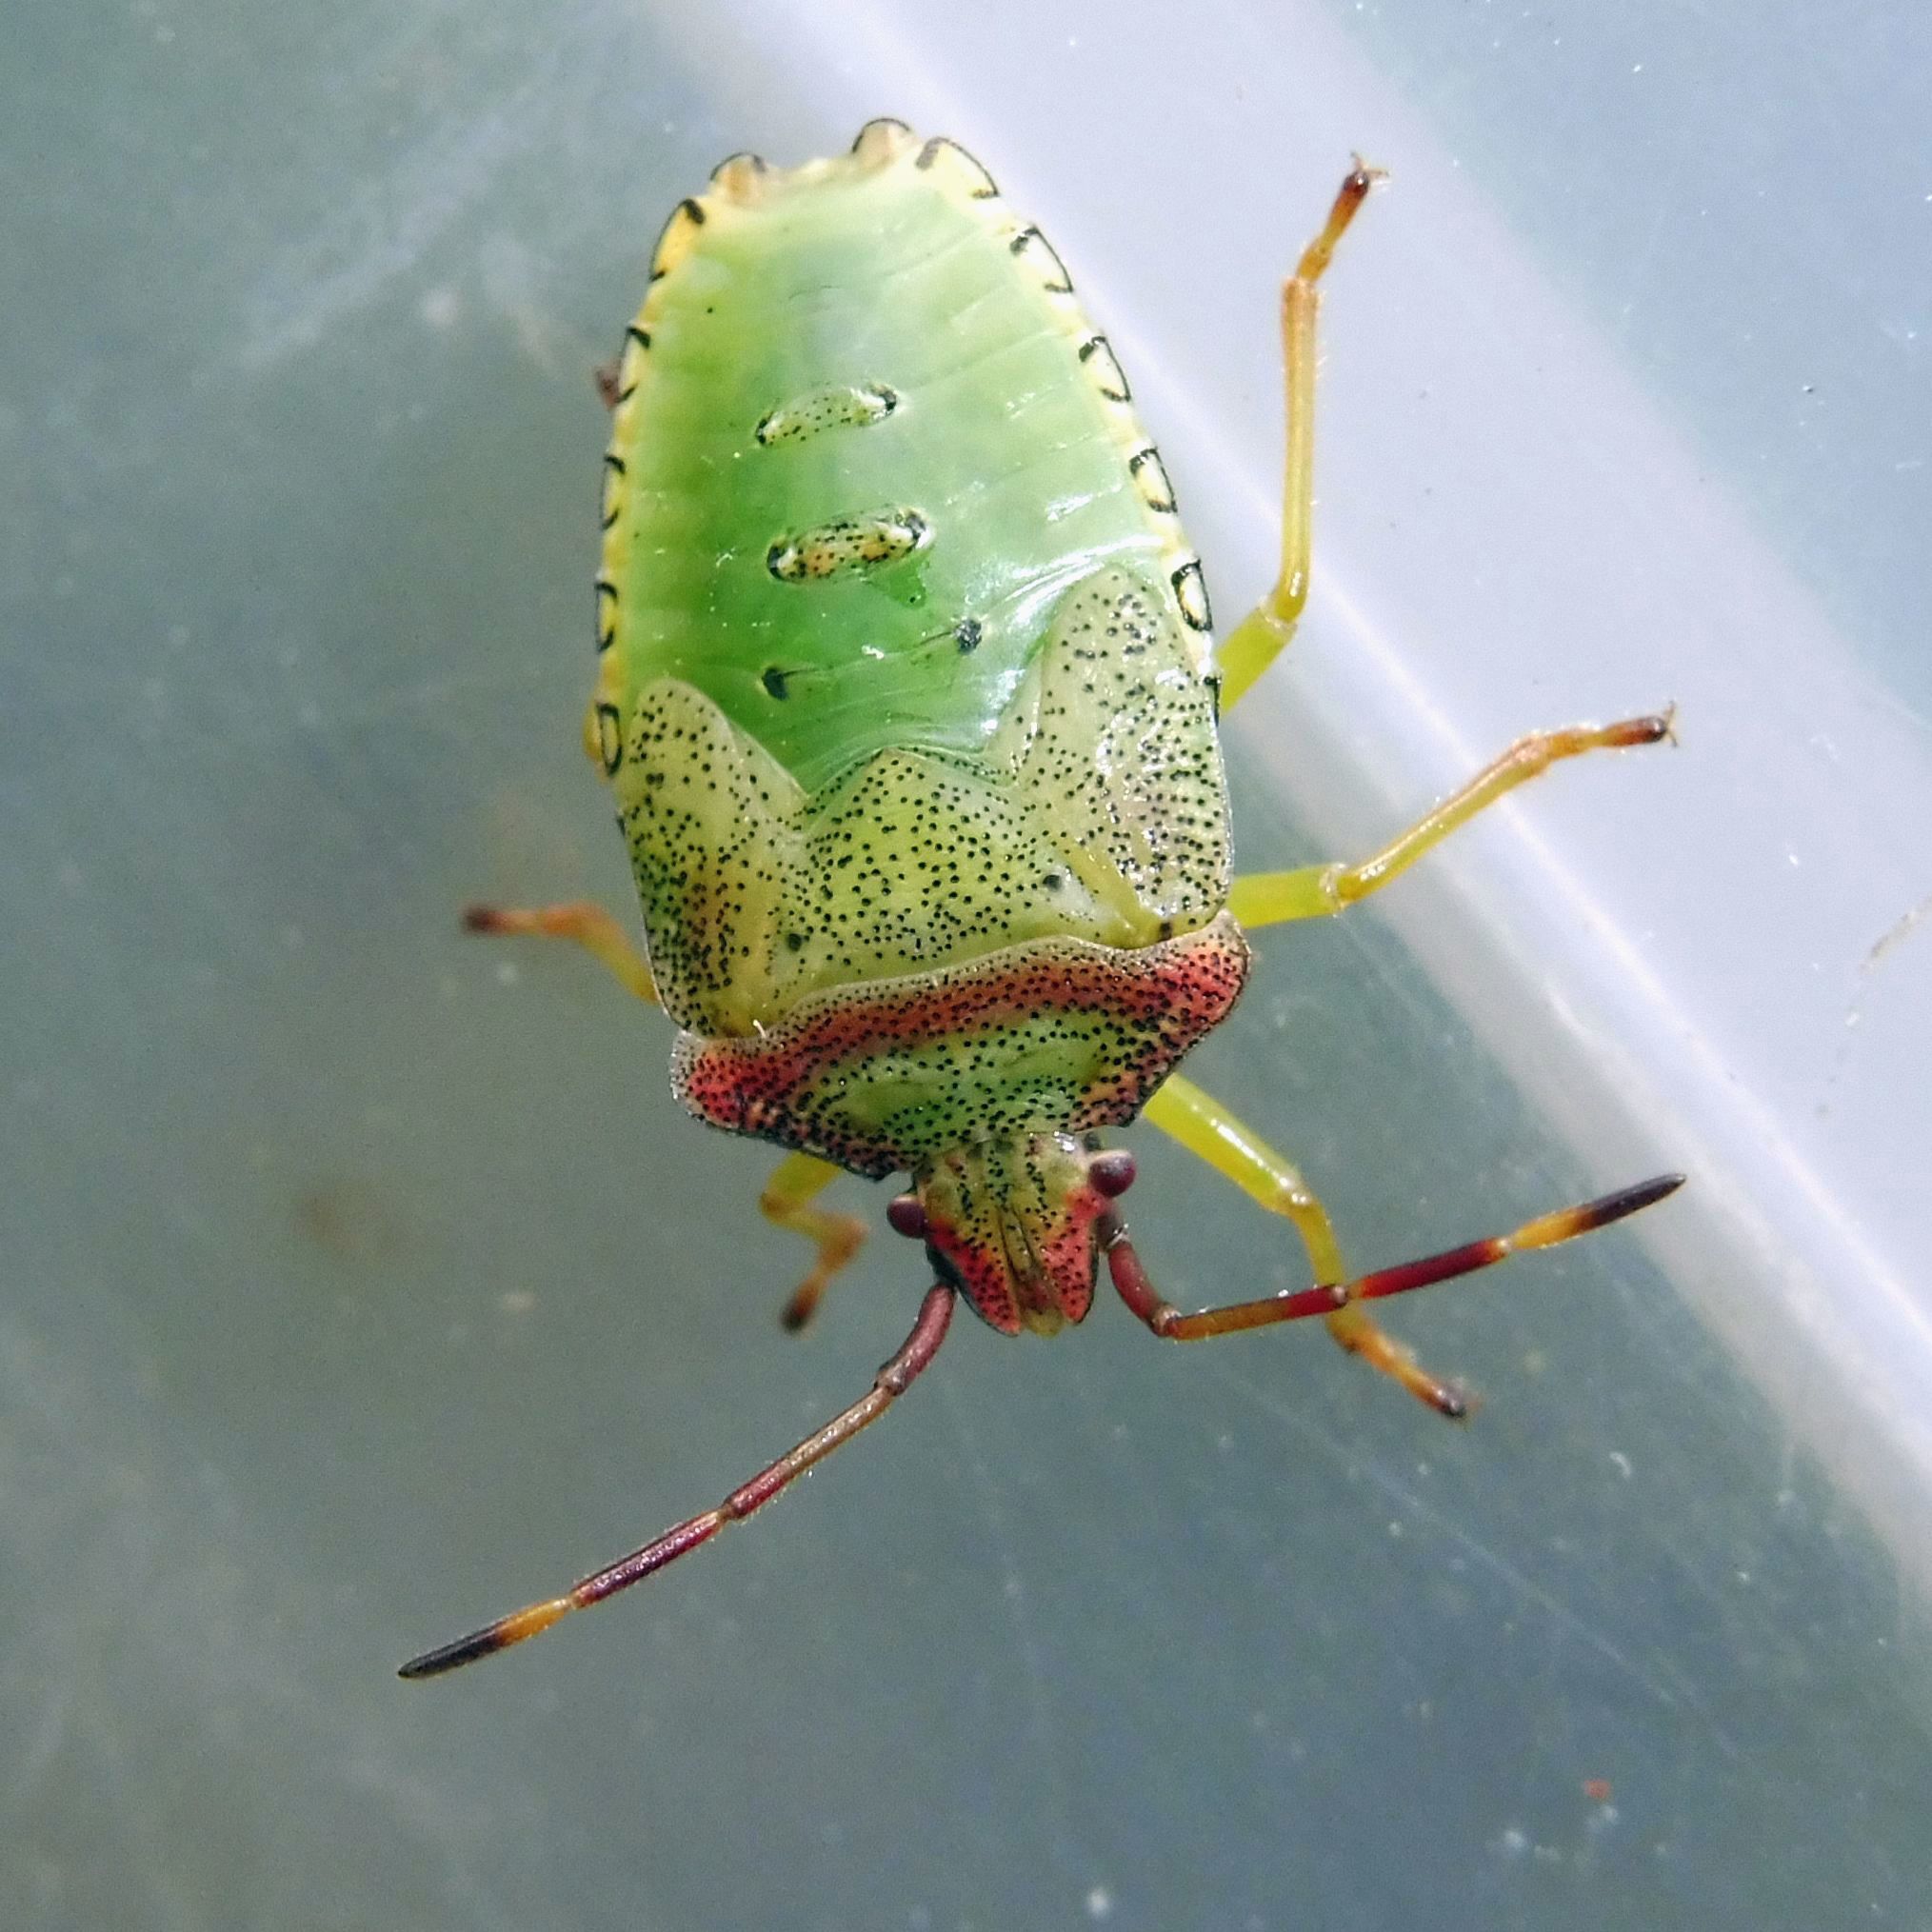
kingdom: Animalia
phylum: Arthropoda
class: Insecta
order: Hemiptera
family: Acanthosomatidae
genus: Acanthosoma
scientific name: Acanthosoma haemorrhoidale
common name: Hawthorn shieldbug
